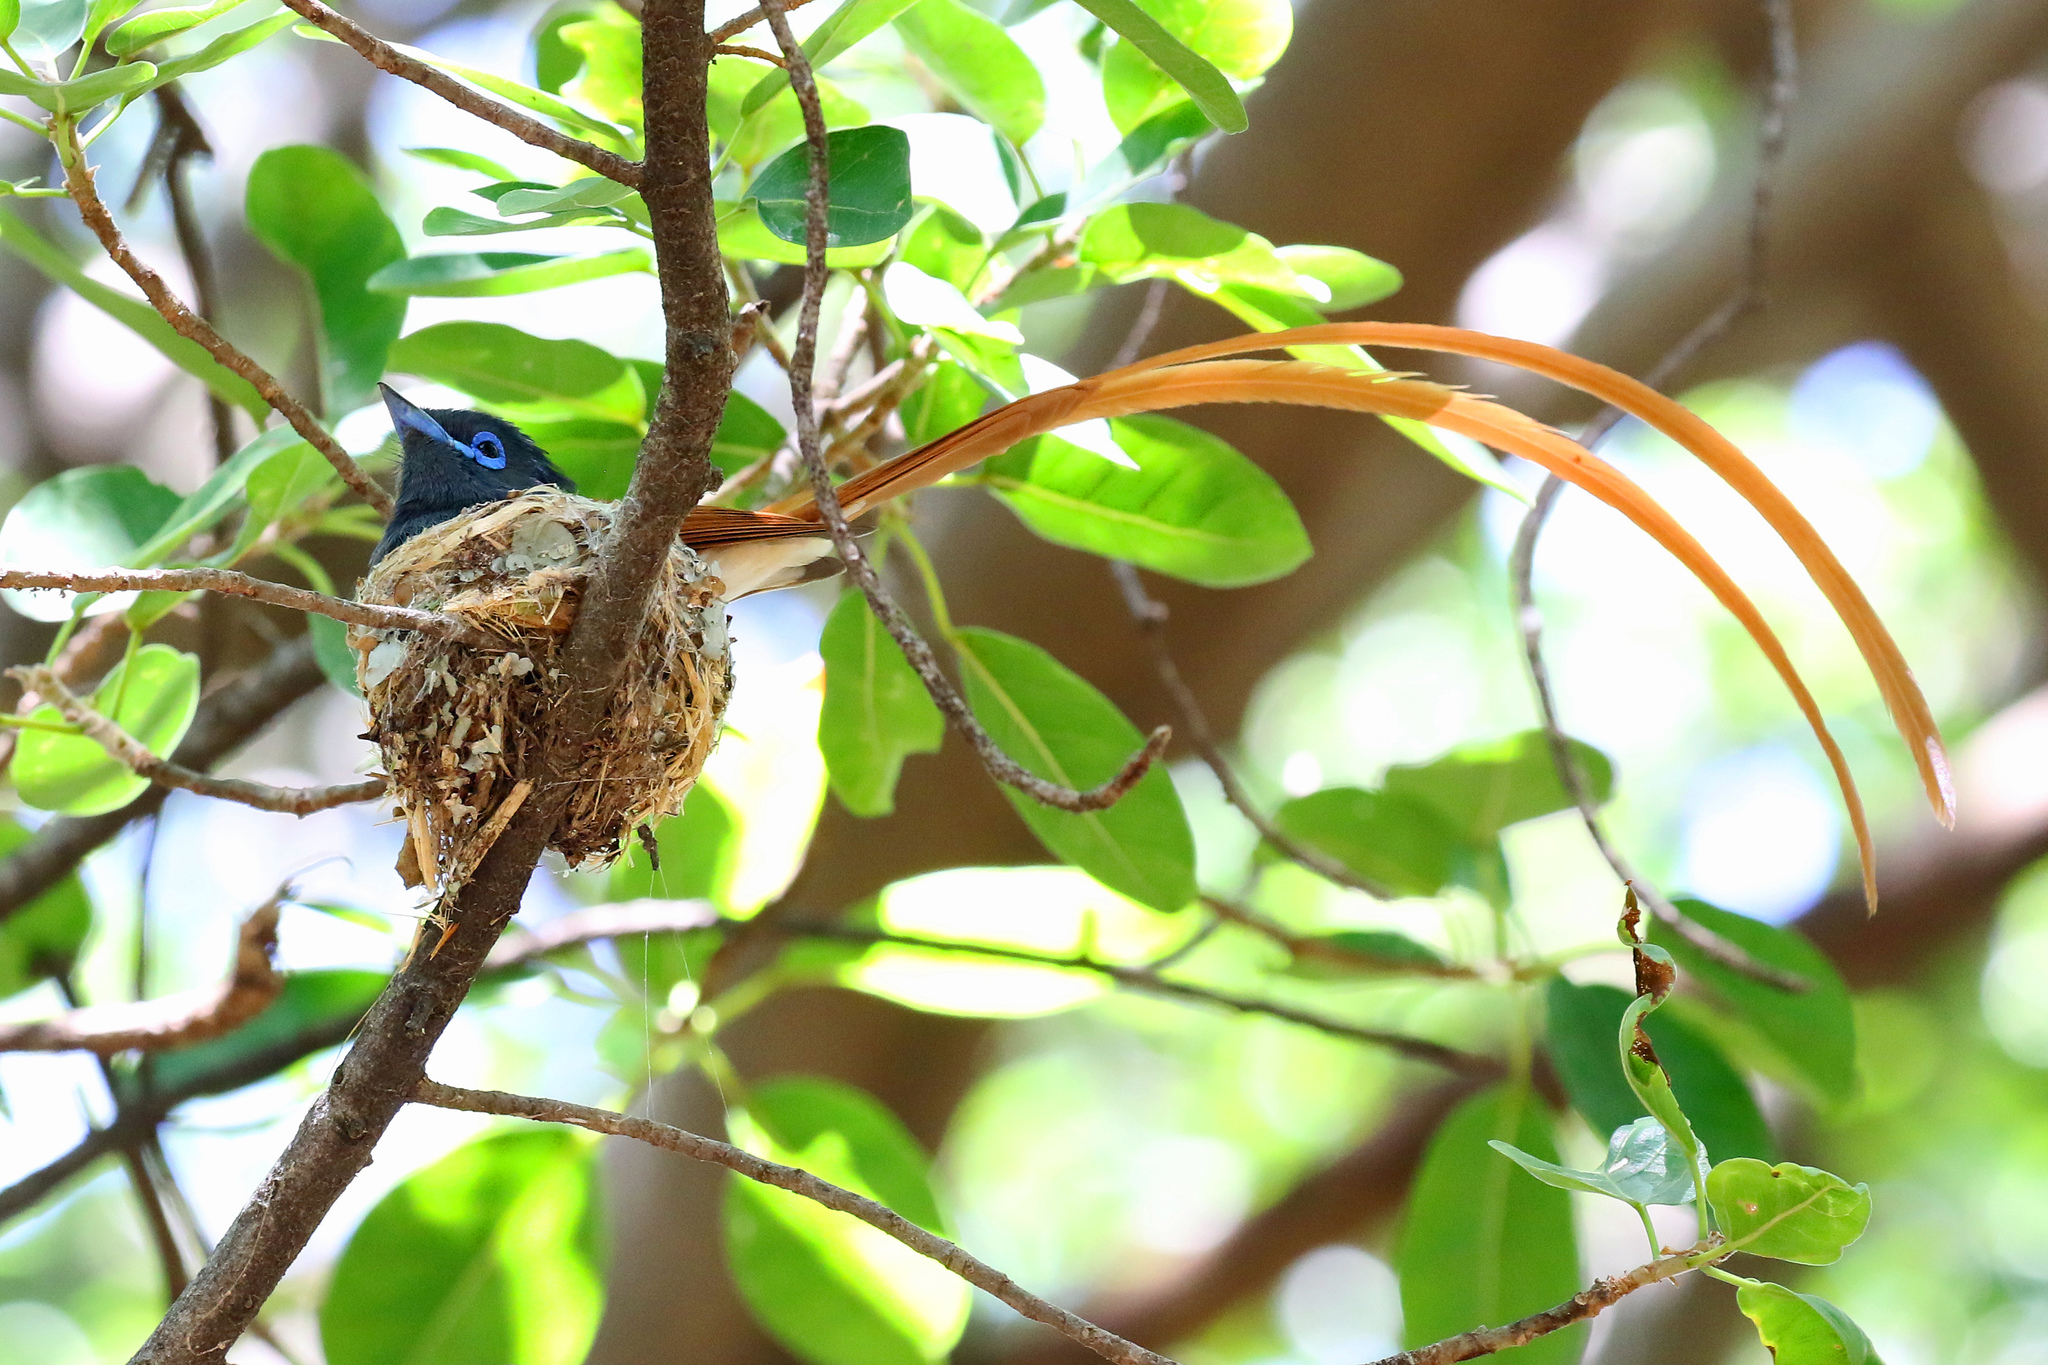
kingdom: Animalia
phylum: Chordata
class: Aves
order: Passeriformes
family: Monarchidae
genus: Terpsiphone
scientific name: Terpsiphone viridis
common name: African paradise flycatcher
